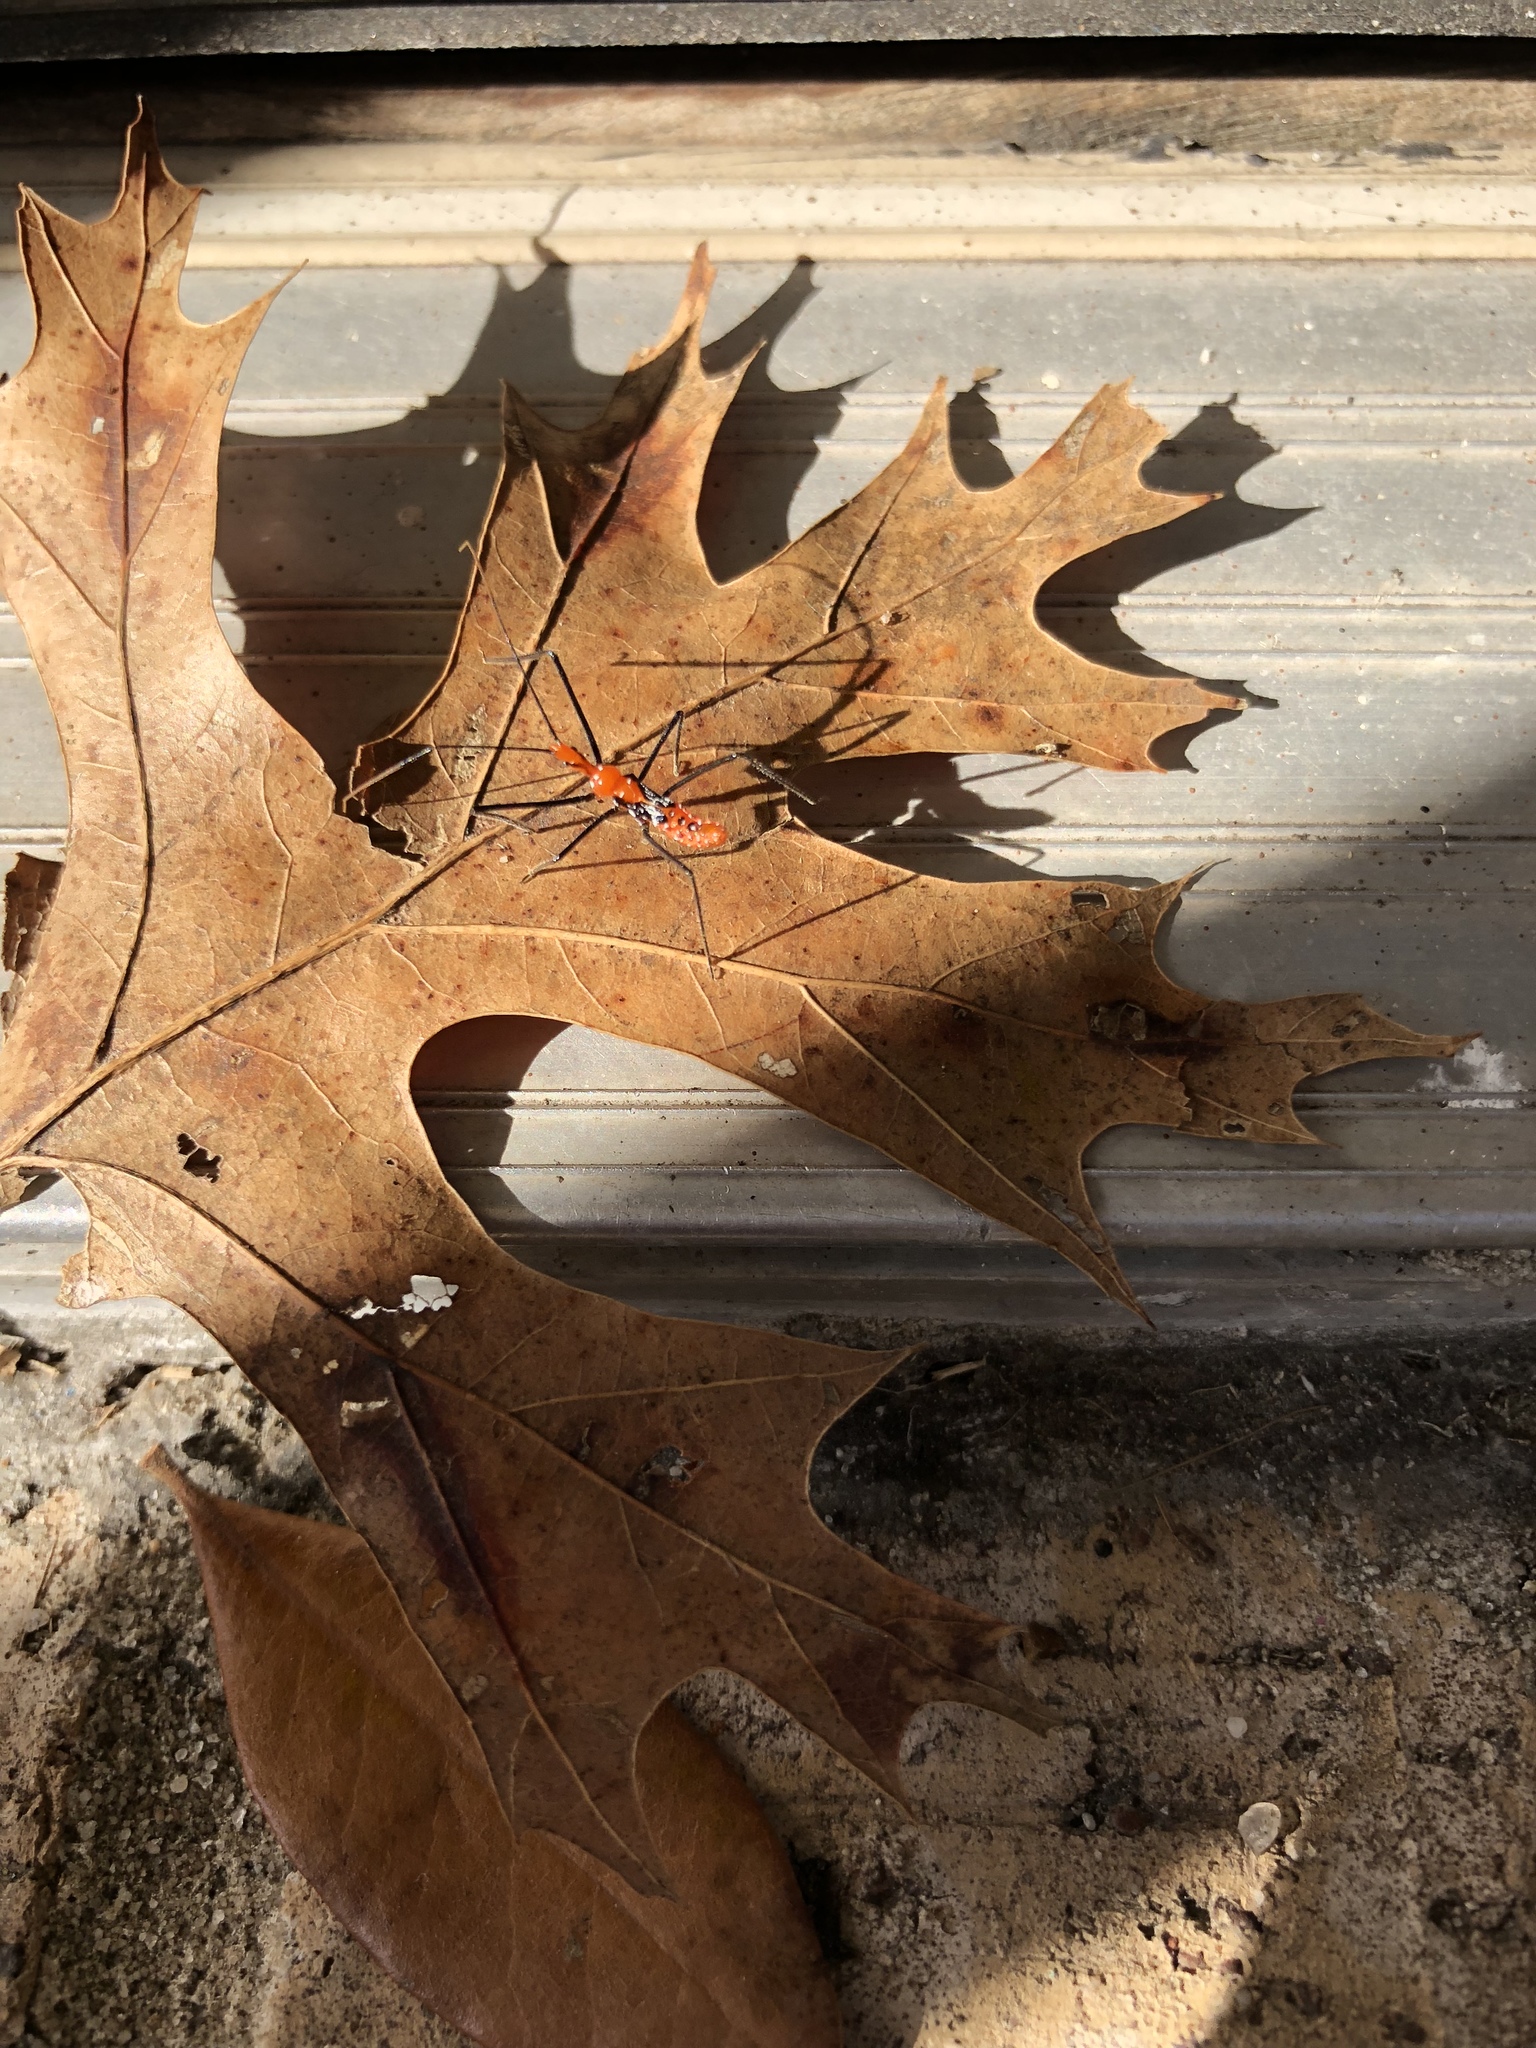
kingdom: Animalia
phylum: Arthropoda
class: Insecta
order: Hemiptera
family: Reduviidae
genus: Zelus
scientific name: Zelus longipes
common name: Milkweed assassin bug
